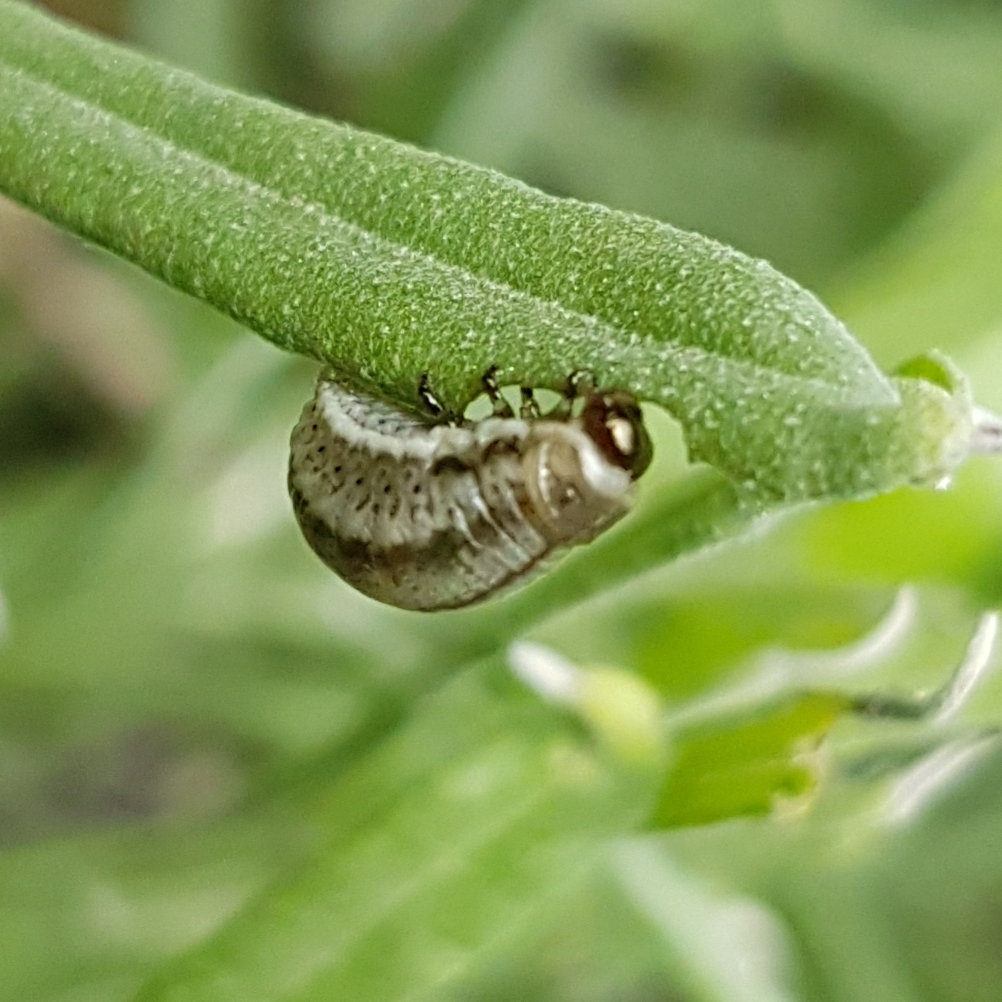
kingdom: Animalia
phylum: Arthropoda
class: Insecta
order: Coleoptera
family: Chrysomelidae
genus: Chrysolina
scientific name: Chrysolina americana
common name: Rosemary beetle
